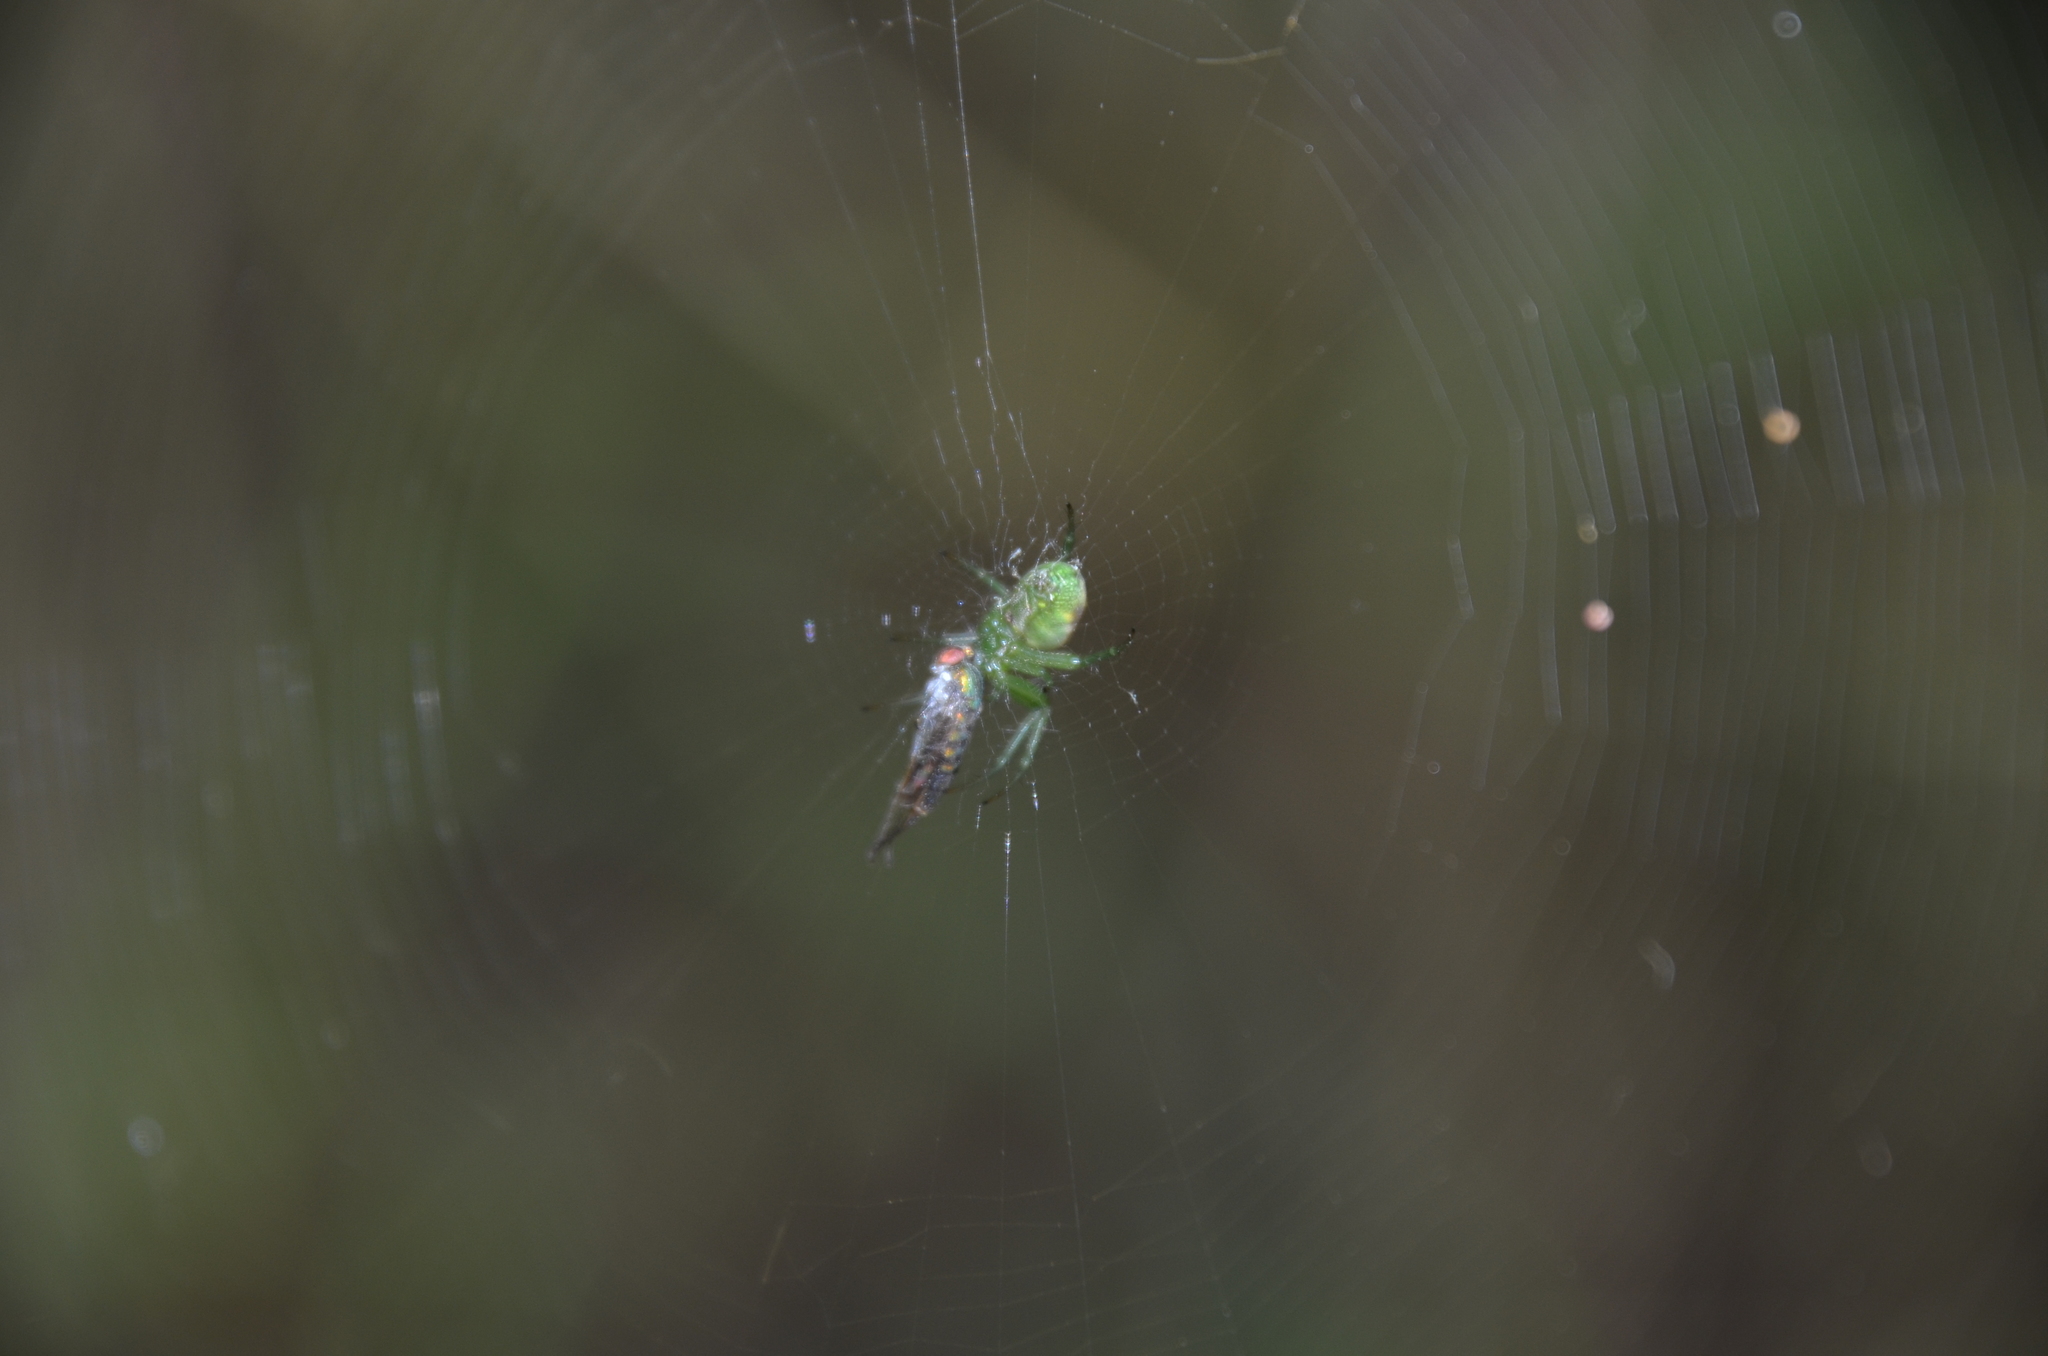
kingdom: Animalia
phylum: Arthropoda
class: Arachnida
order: Araneae
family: Araneidae
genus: Mangora
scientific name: Mangora lactea
